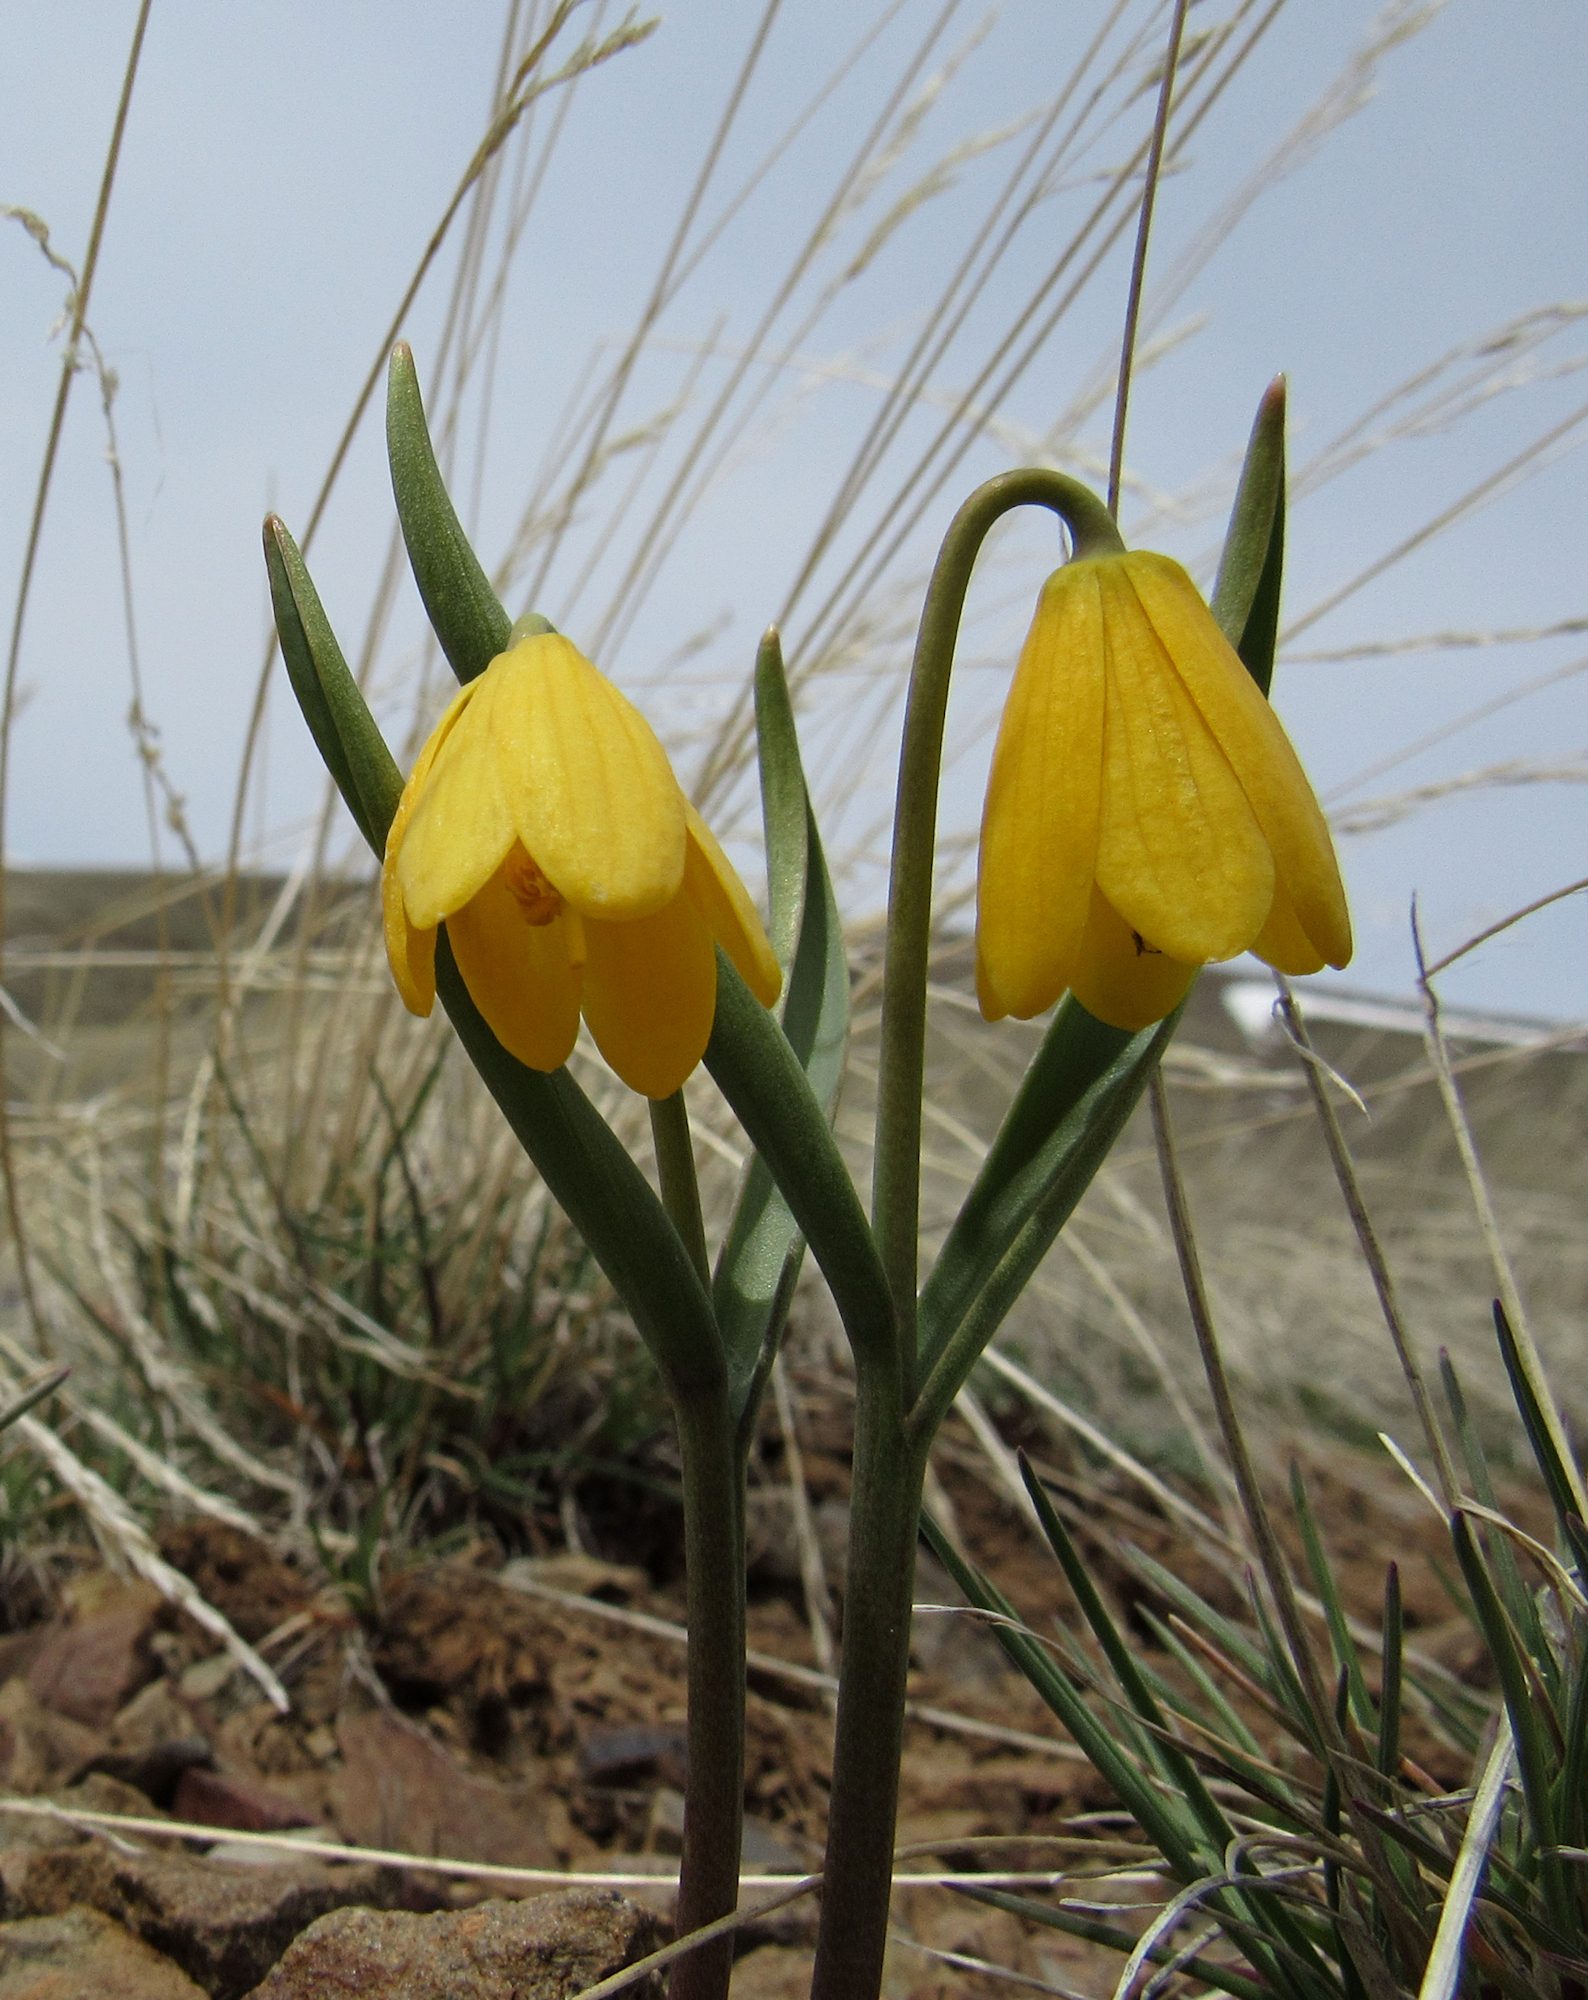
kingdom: Plantae
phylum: Tracheophyta
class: Liliopsida
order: Liliales
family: Liliaceae
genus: Fritillaria
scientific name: Fritillaria pudica
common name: Yellow fritillary
